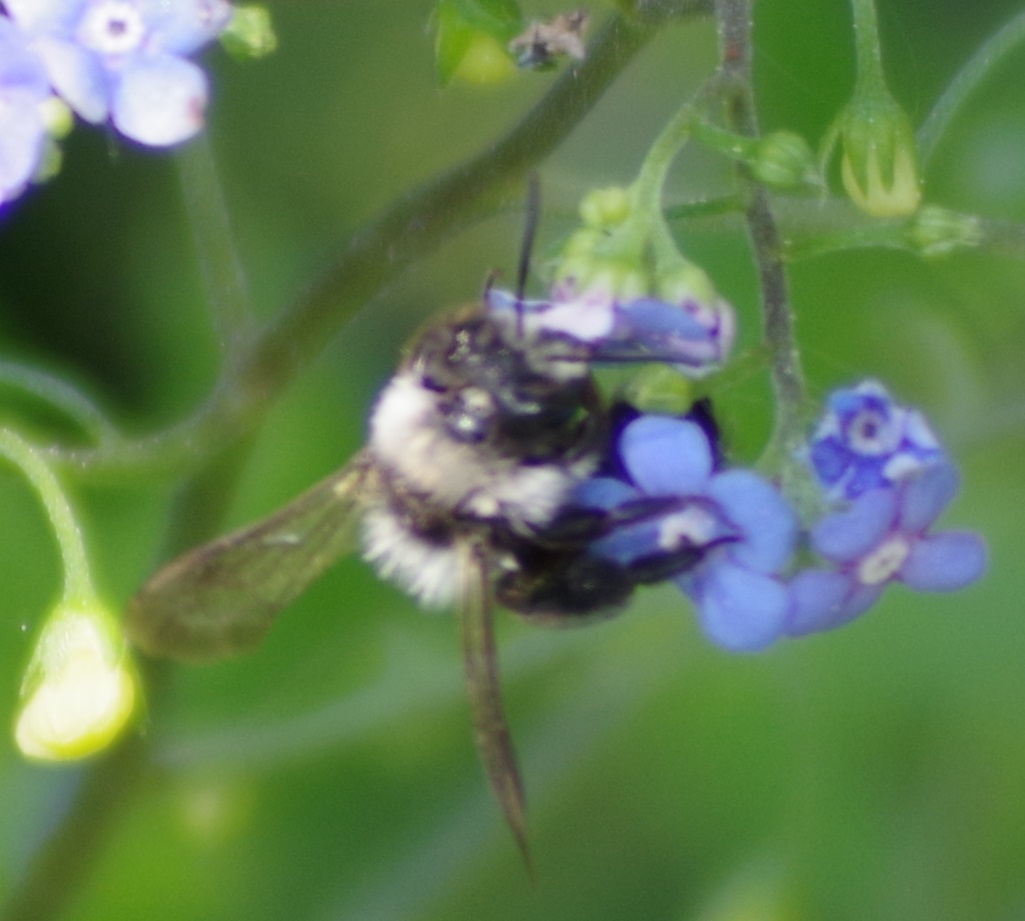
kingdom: Animalia
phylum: Arthropoda
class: Insecta
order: Hymenoptera
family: Andrenidae
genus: Andrena
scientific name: Andrena cineraria
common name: Ashy mining bee
